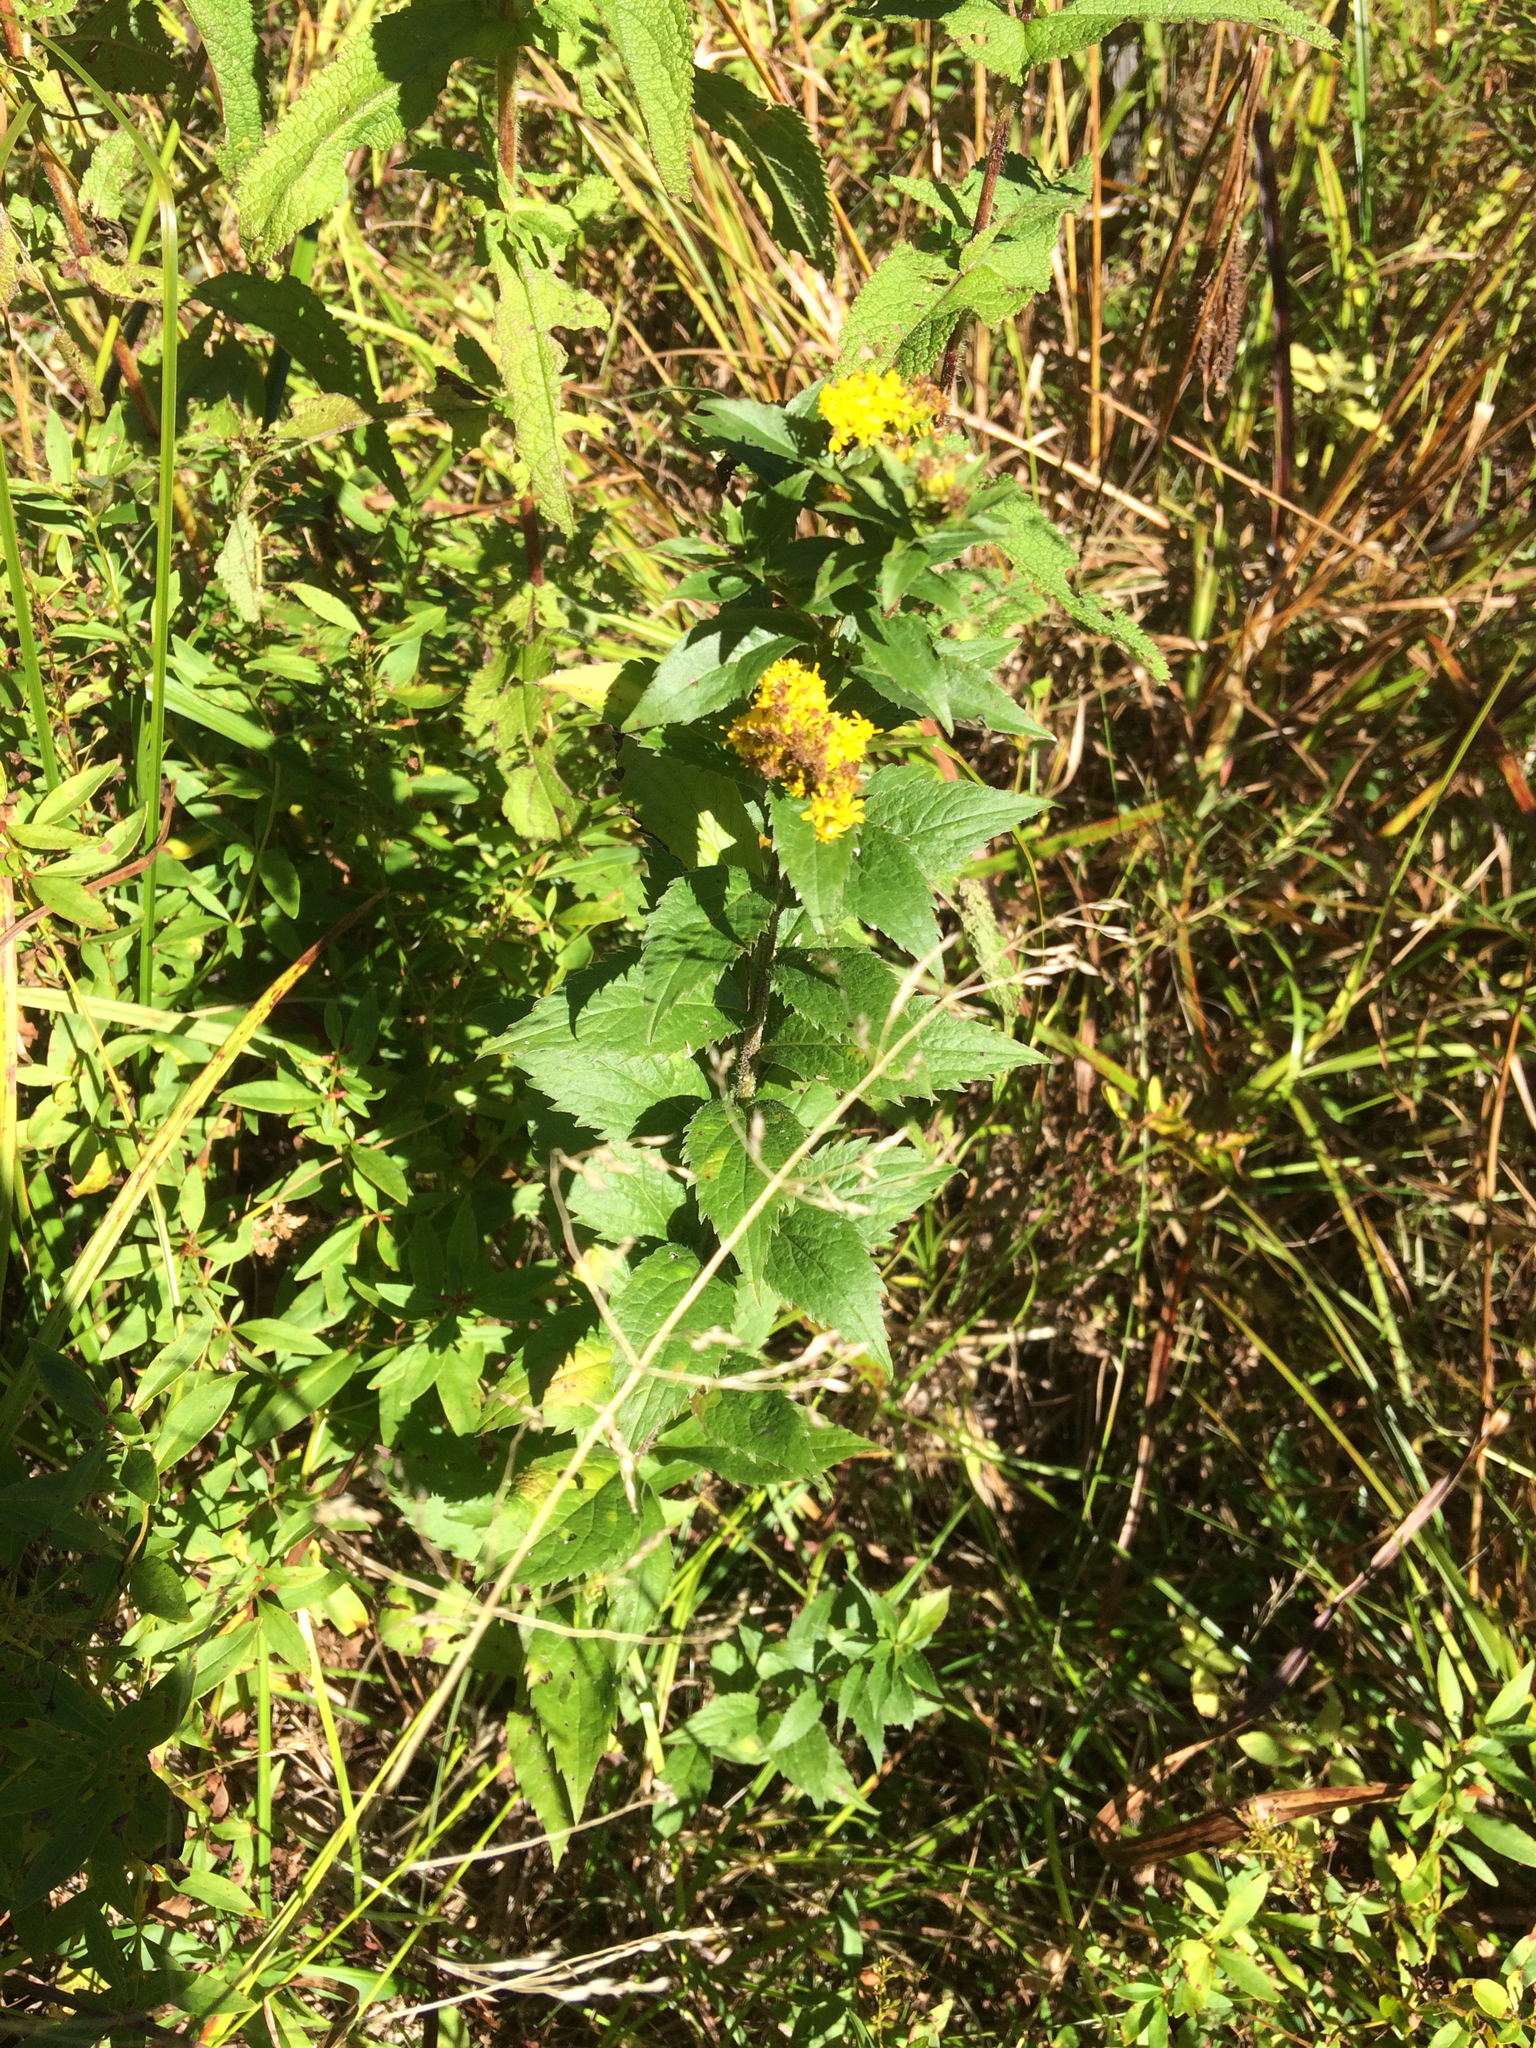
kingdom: Plantae
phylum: Tracheophyta
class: Magnoliopsida
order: Asterales
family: Asteraceae
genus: Solidago
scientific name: Solidago rugosa
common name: Rough-stemmed goldenrod
